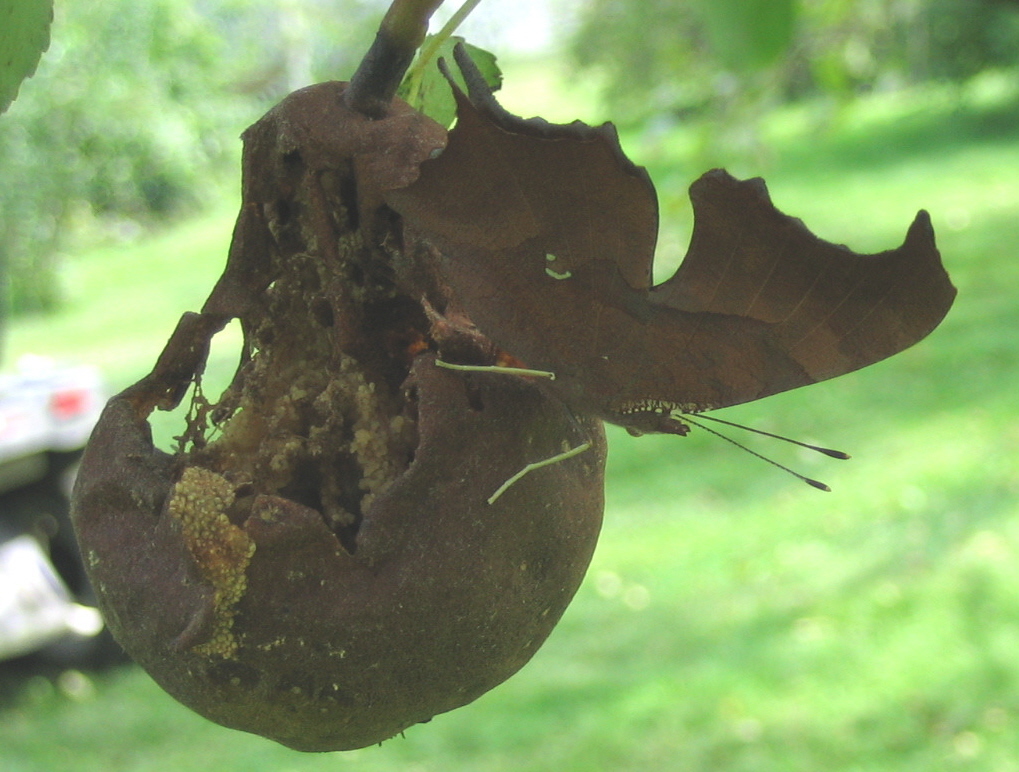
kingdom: Animalia
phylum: Arthropoda
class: Insecta
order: Lepidoptera
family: Nymphalidae
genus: Polygonia
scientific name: Polygonia interrogationis
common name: Question mark
